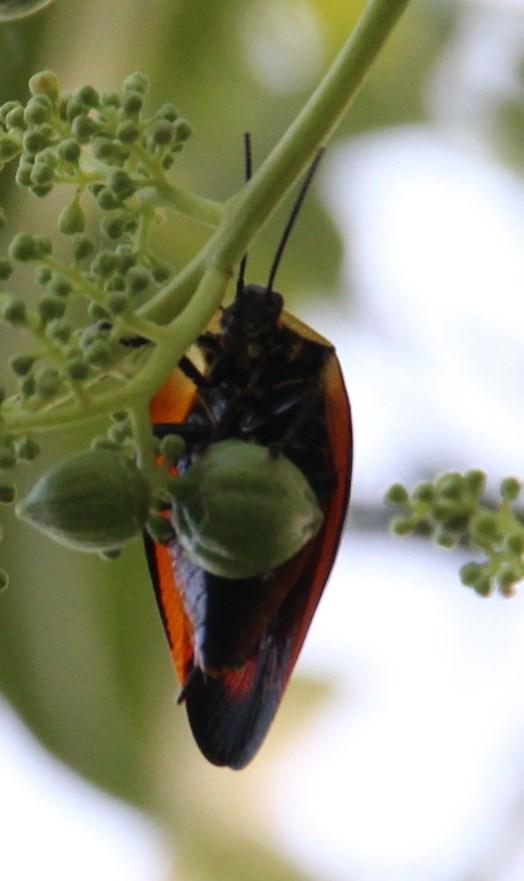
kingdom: Plantae
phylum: Tracheophyta
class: Magnoliopsida
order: Sapindales
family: Anacardiaceae
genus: Spondias
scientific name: Spondias mombin
